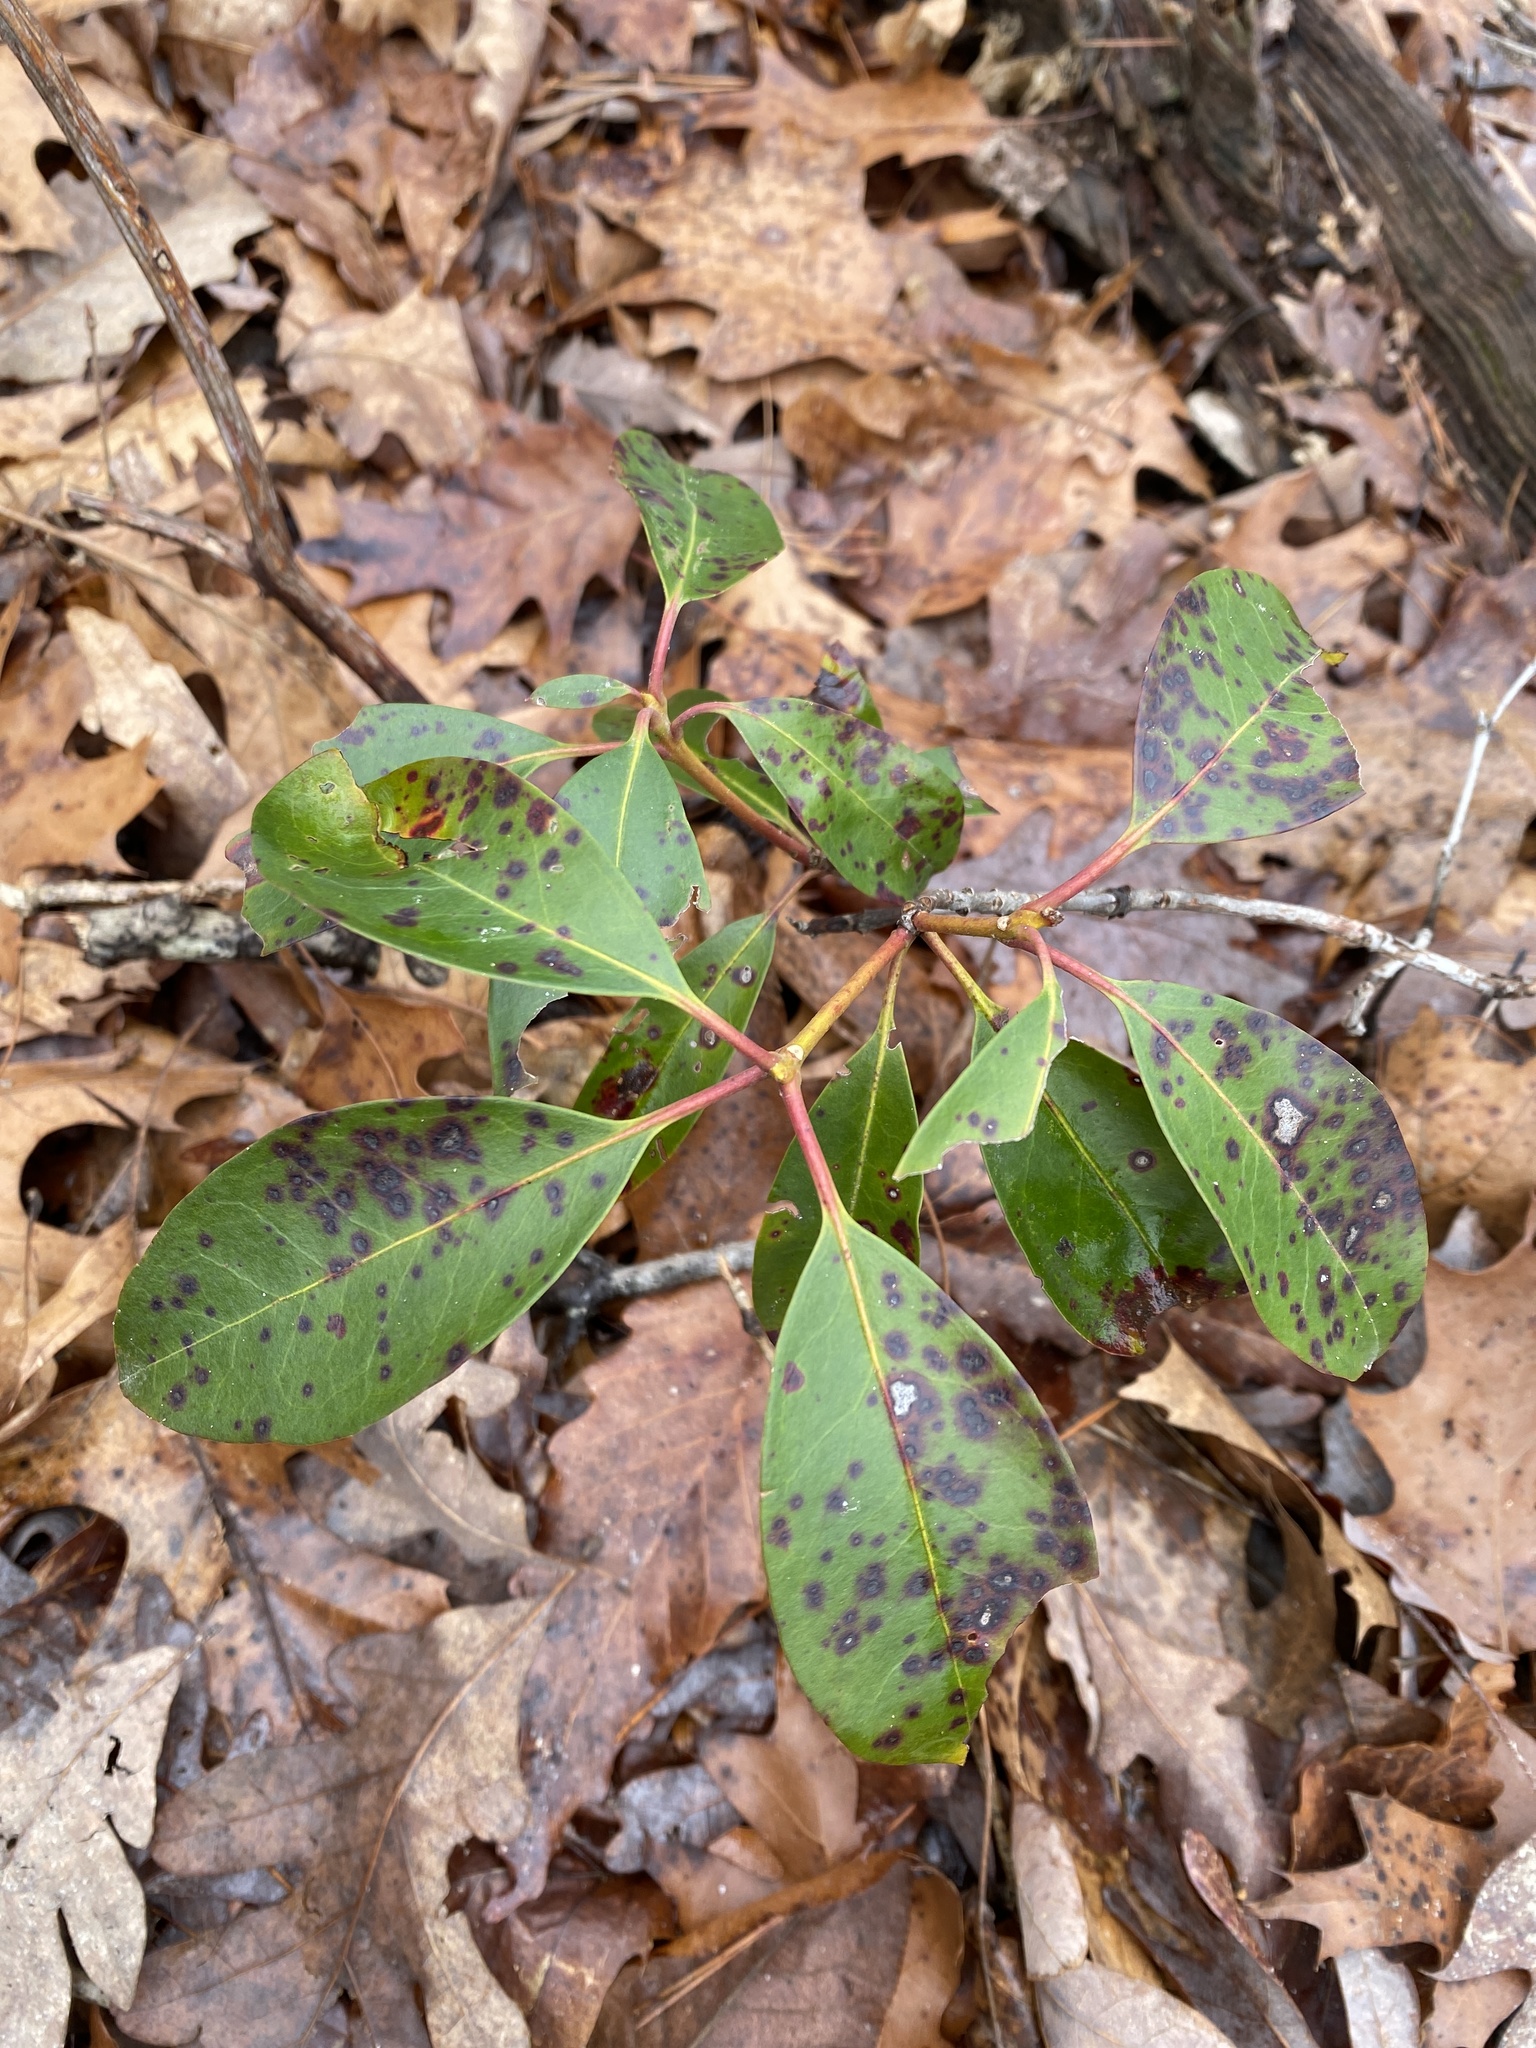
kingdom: Plantae
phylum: Tracheophyta
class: Magnoliopsida
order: Ericales
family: Ericaceae
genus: Kalmia
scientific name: Kalmia latifolia
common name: Mountain-laurel
